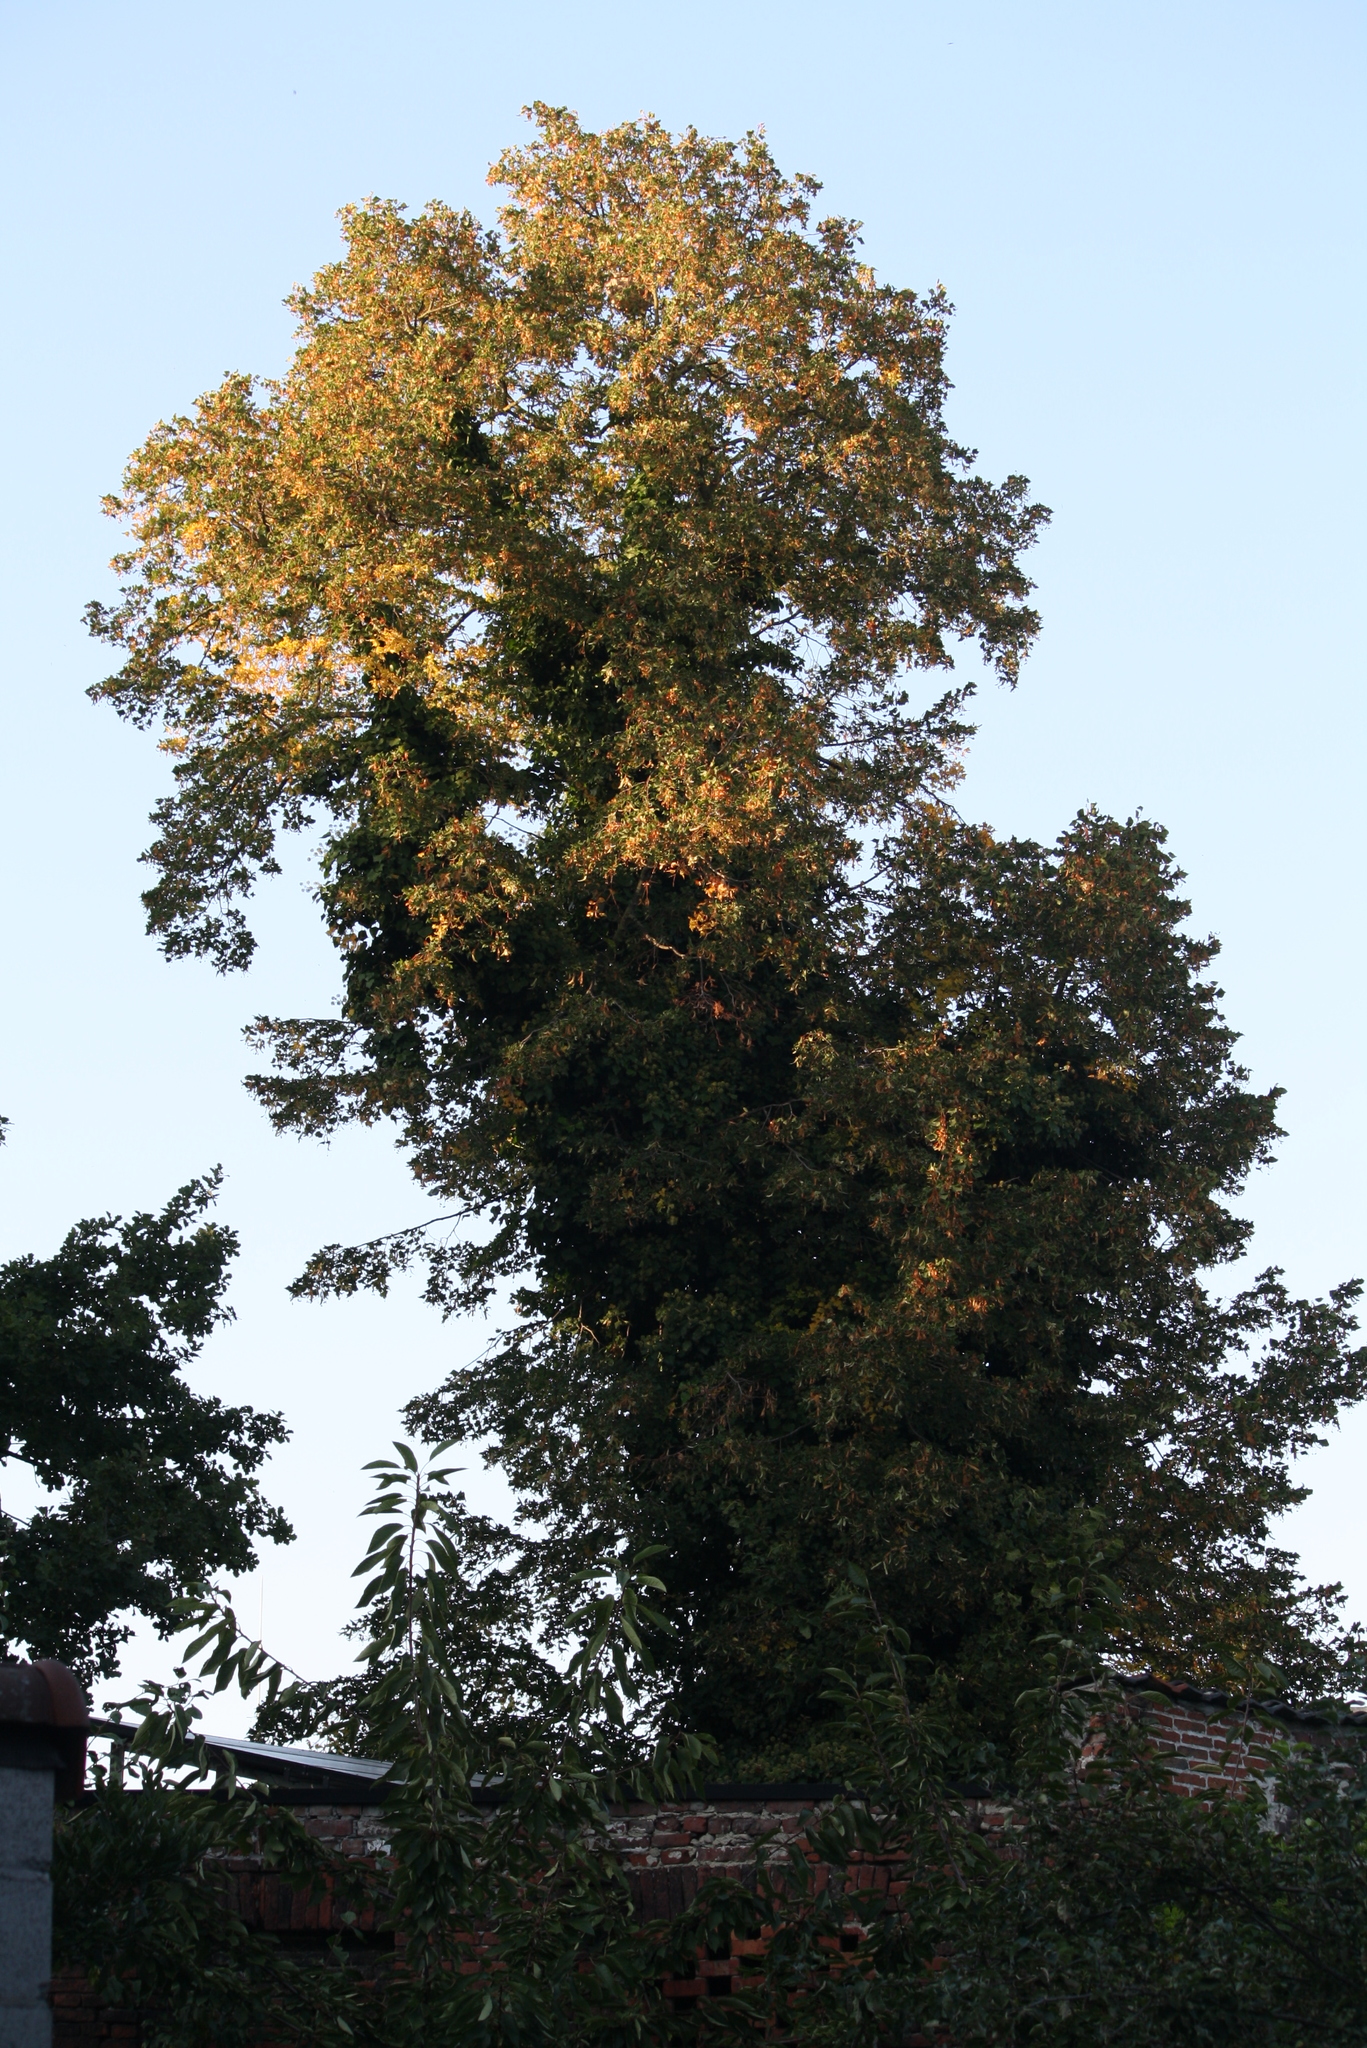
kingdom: Animalia
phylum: Arthropoda
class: Insecta
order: Hymenoptera
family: Vespidae
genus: Vespa
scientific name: Vespa velutina
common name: Asian hornet
